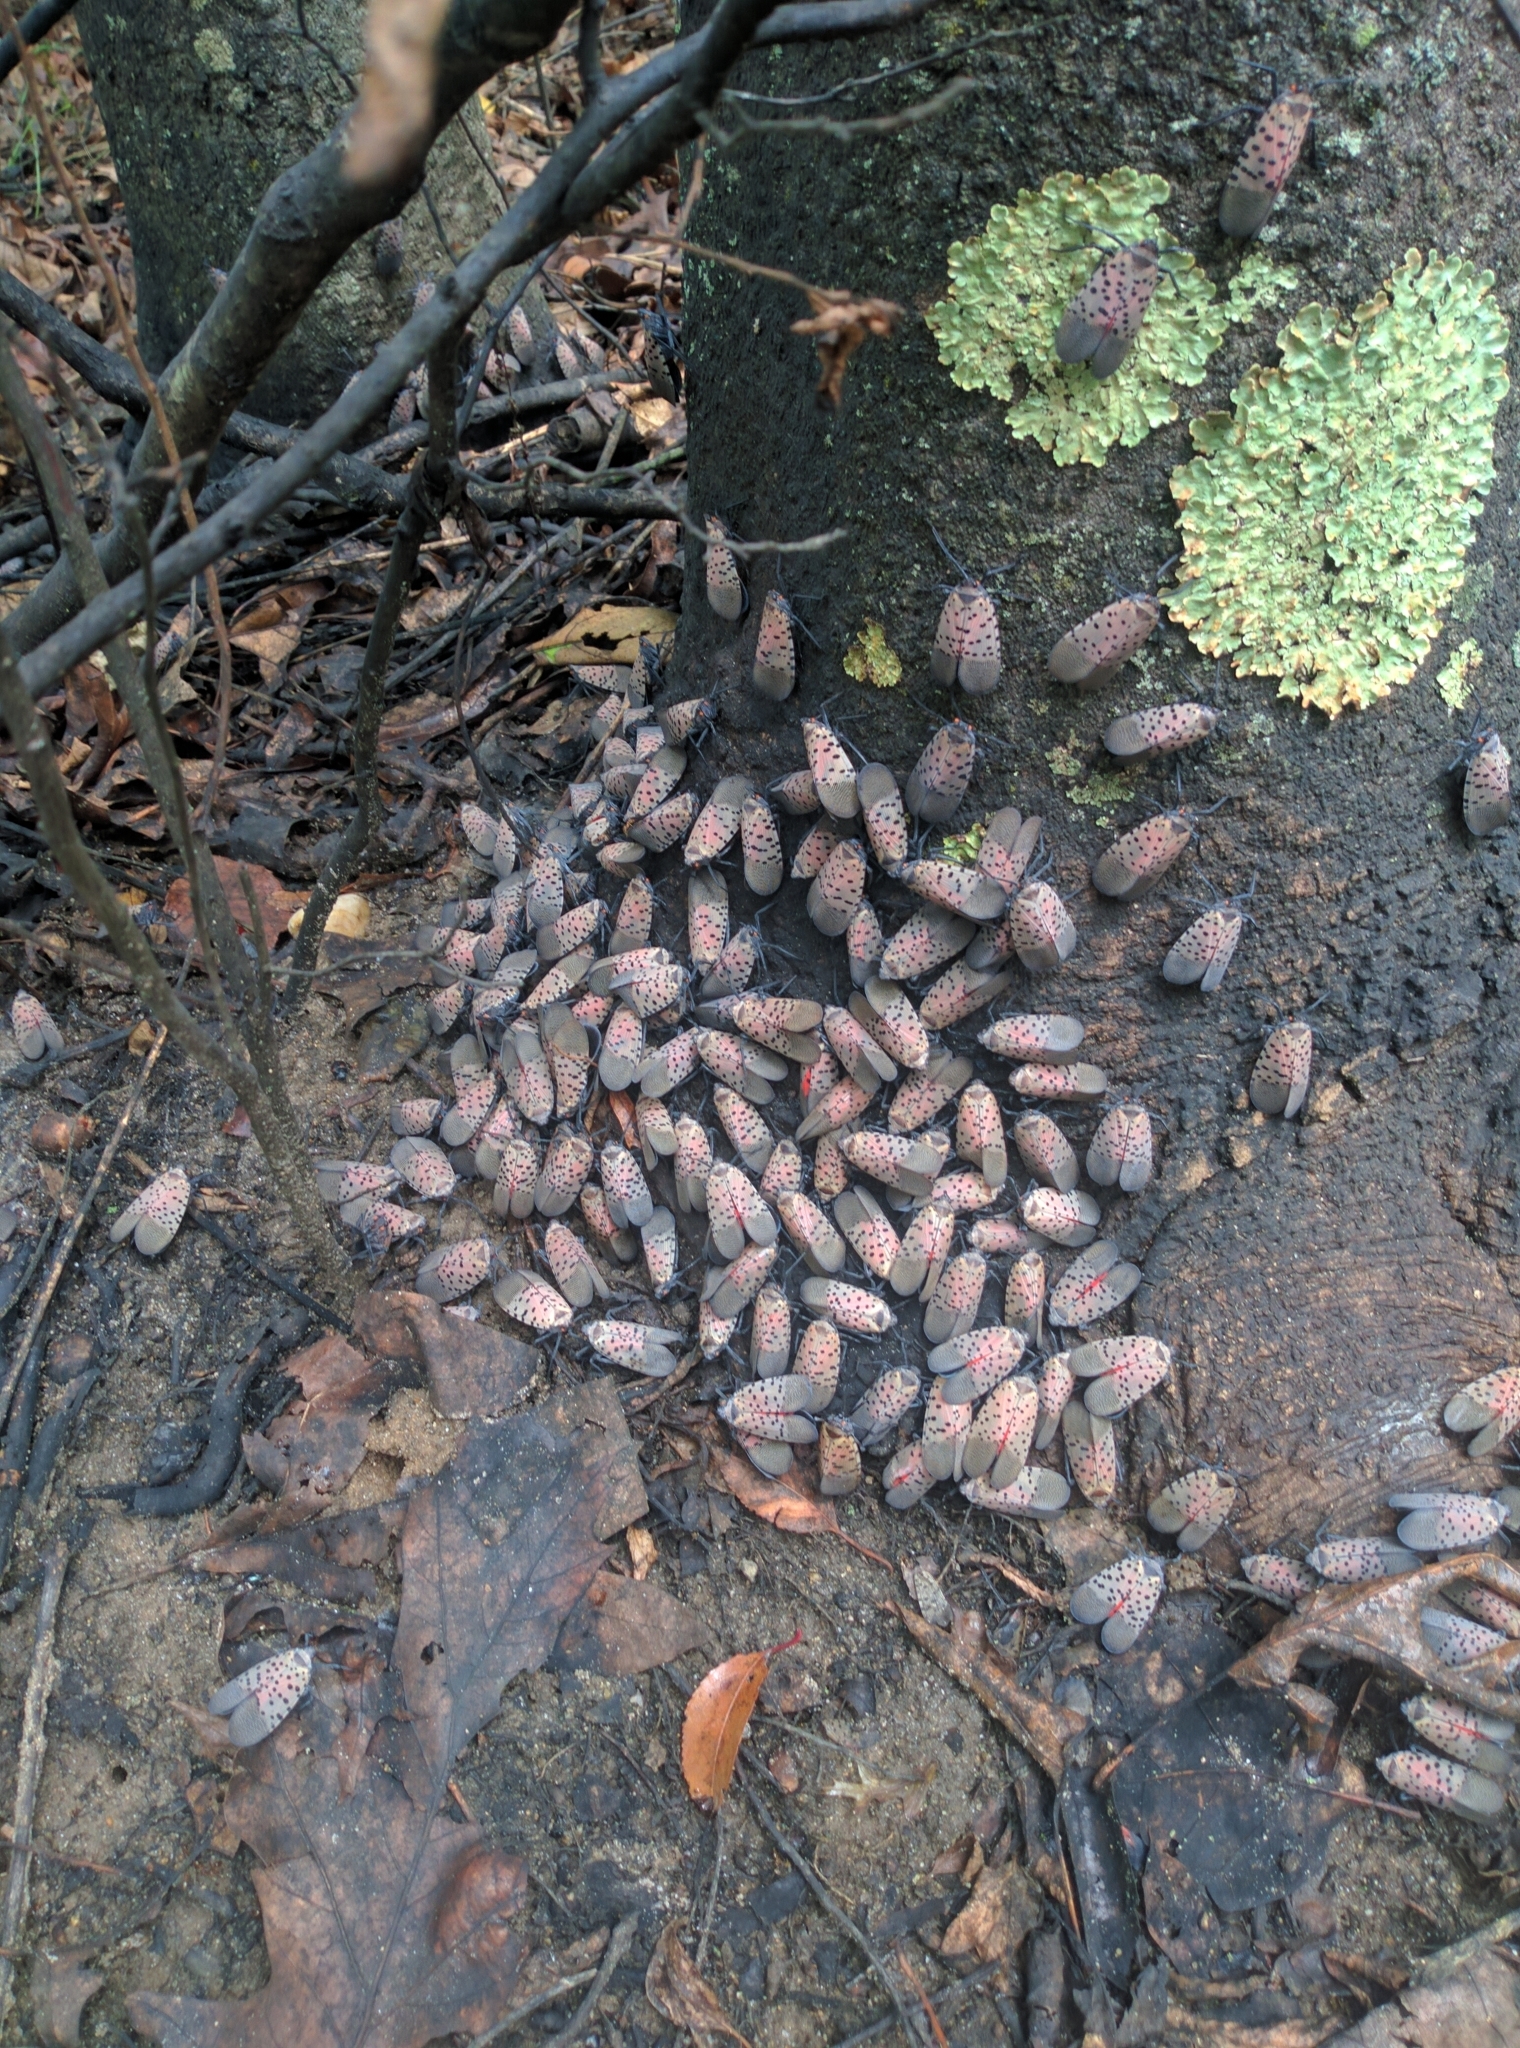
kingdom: Animalia
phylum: Arthropoda
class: Insecta
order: Hemiptera
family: Fulgoridae
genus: Lycorma
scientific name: Lycorma delicatula
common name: Spotted lanternfly
